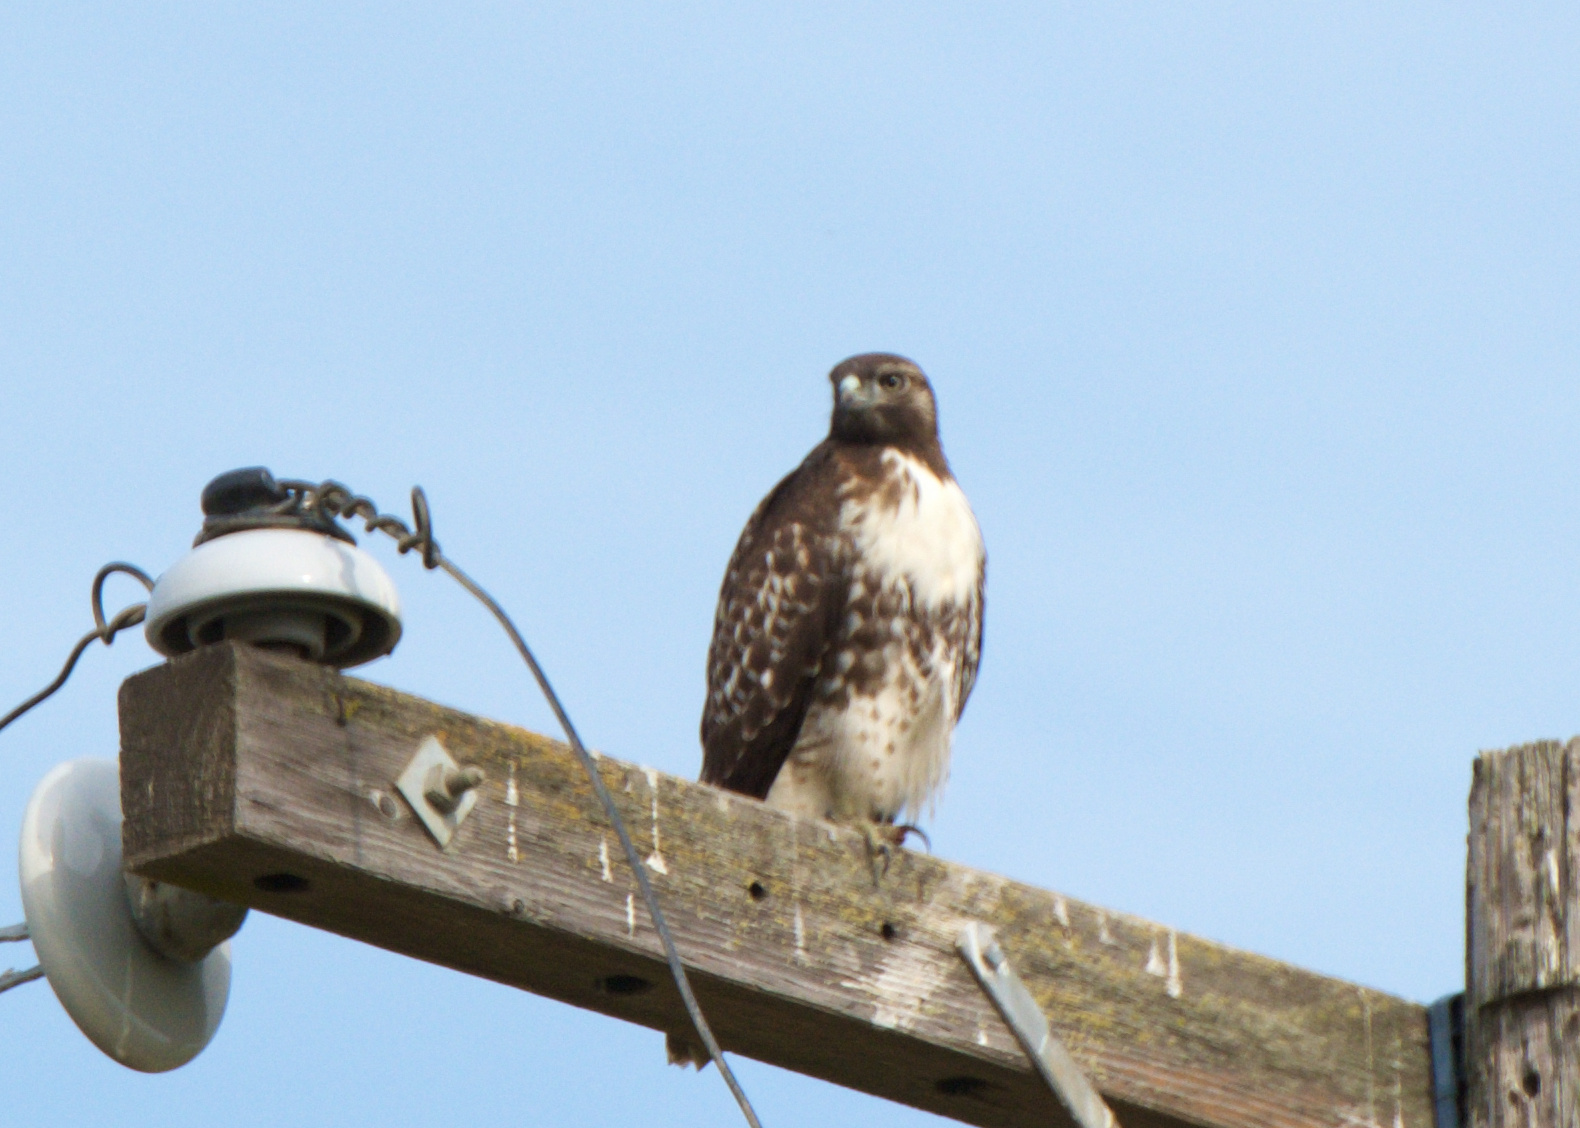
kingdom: Animalia
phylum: Chordata
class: Aves
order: Accipitriformes
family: Accipitridae
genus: Buteo
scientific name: Buteo jamaicensis
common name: Red-tailed hawk
